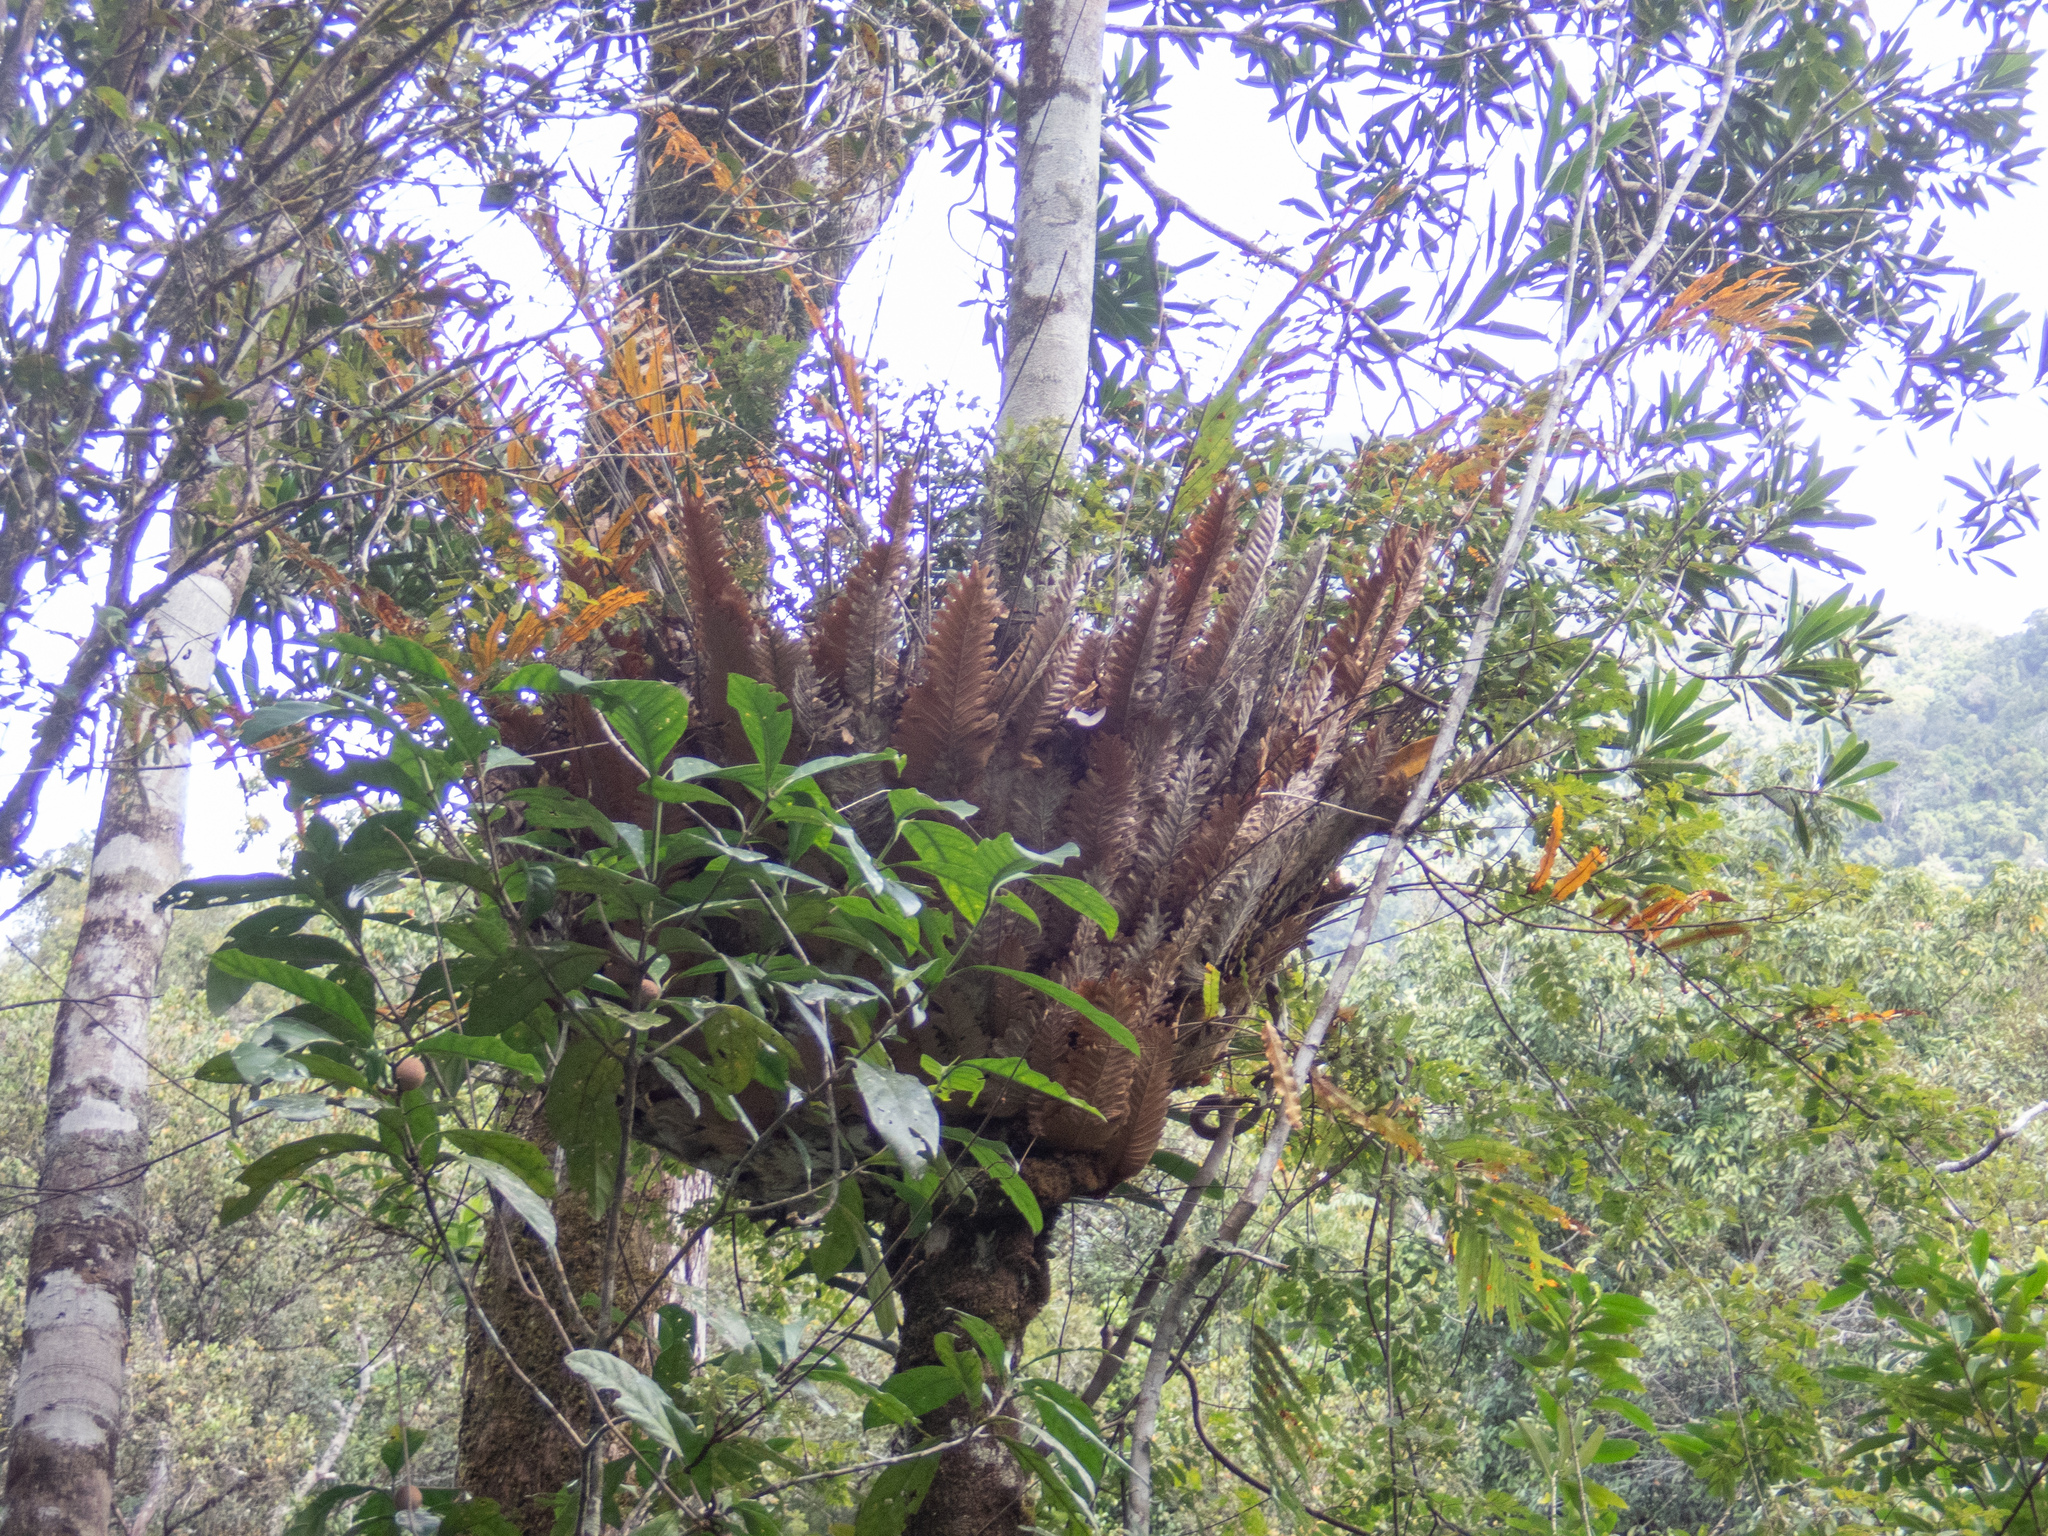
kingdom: Plantae
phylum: Tracheophyta
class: Polypodiopsida
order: Polypodiales
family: Polypodiaceae
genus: Drynaria
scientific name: Drynaria rigidula
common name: Basket fern
